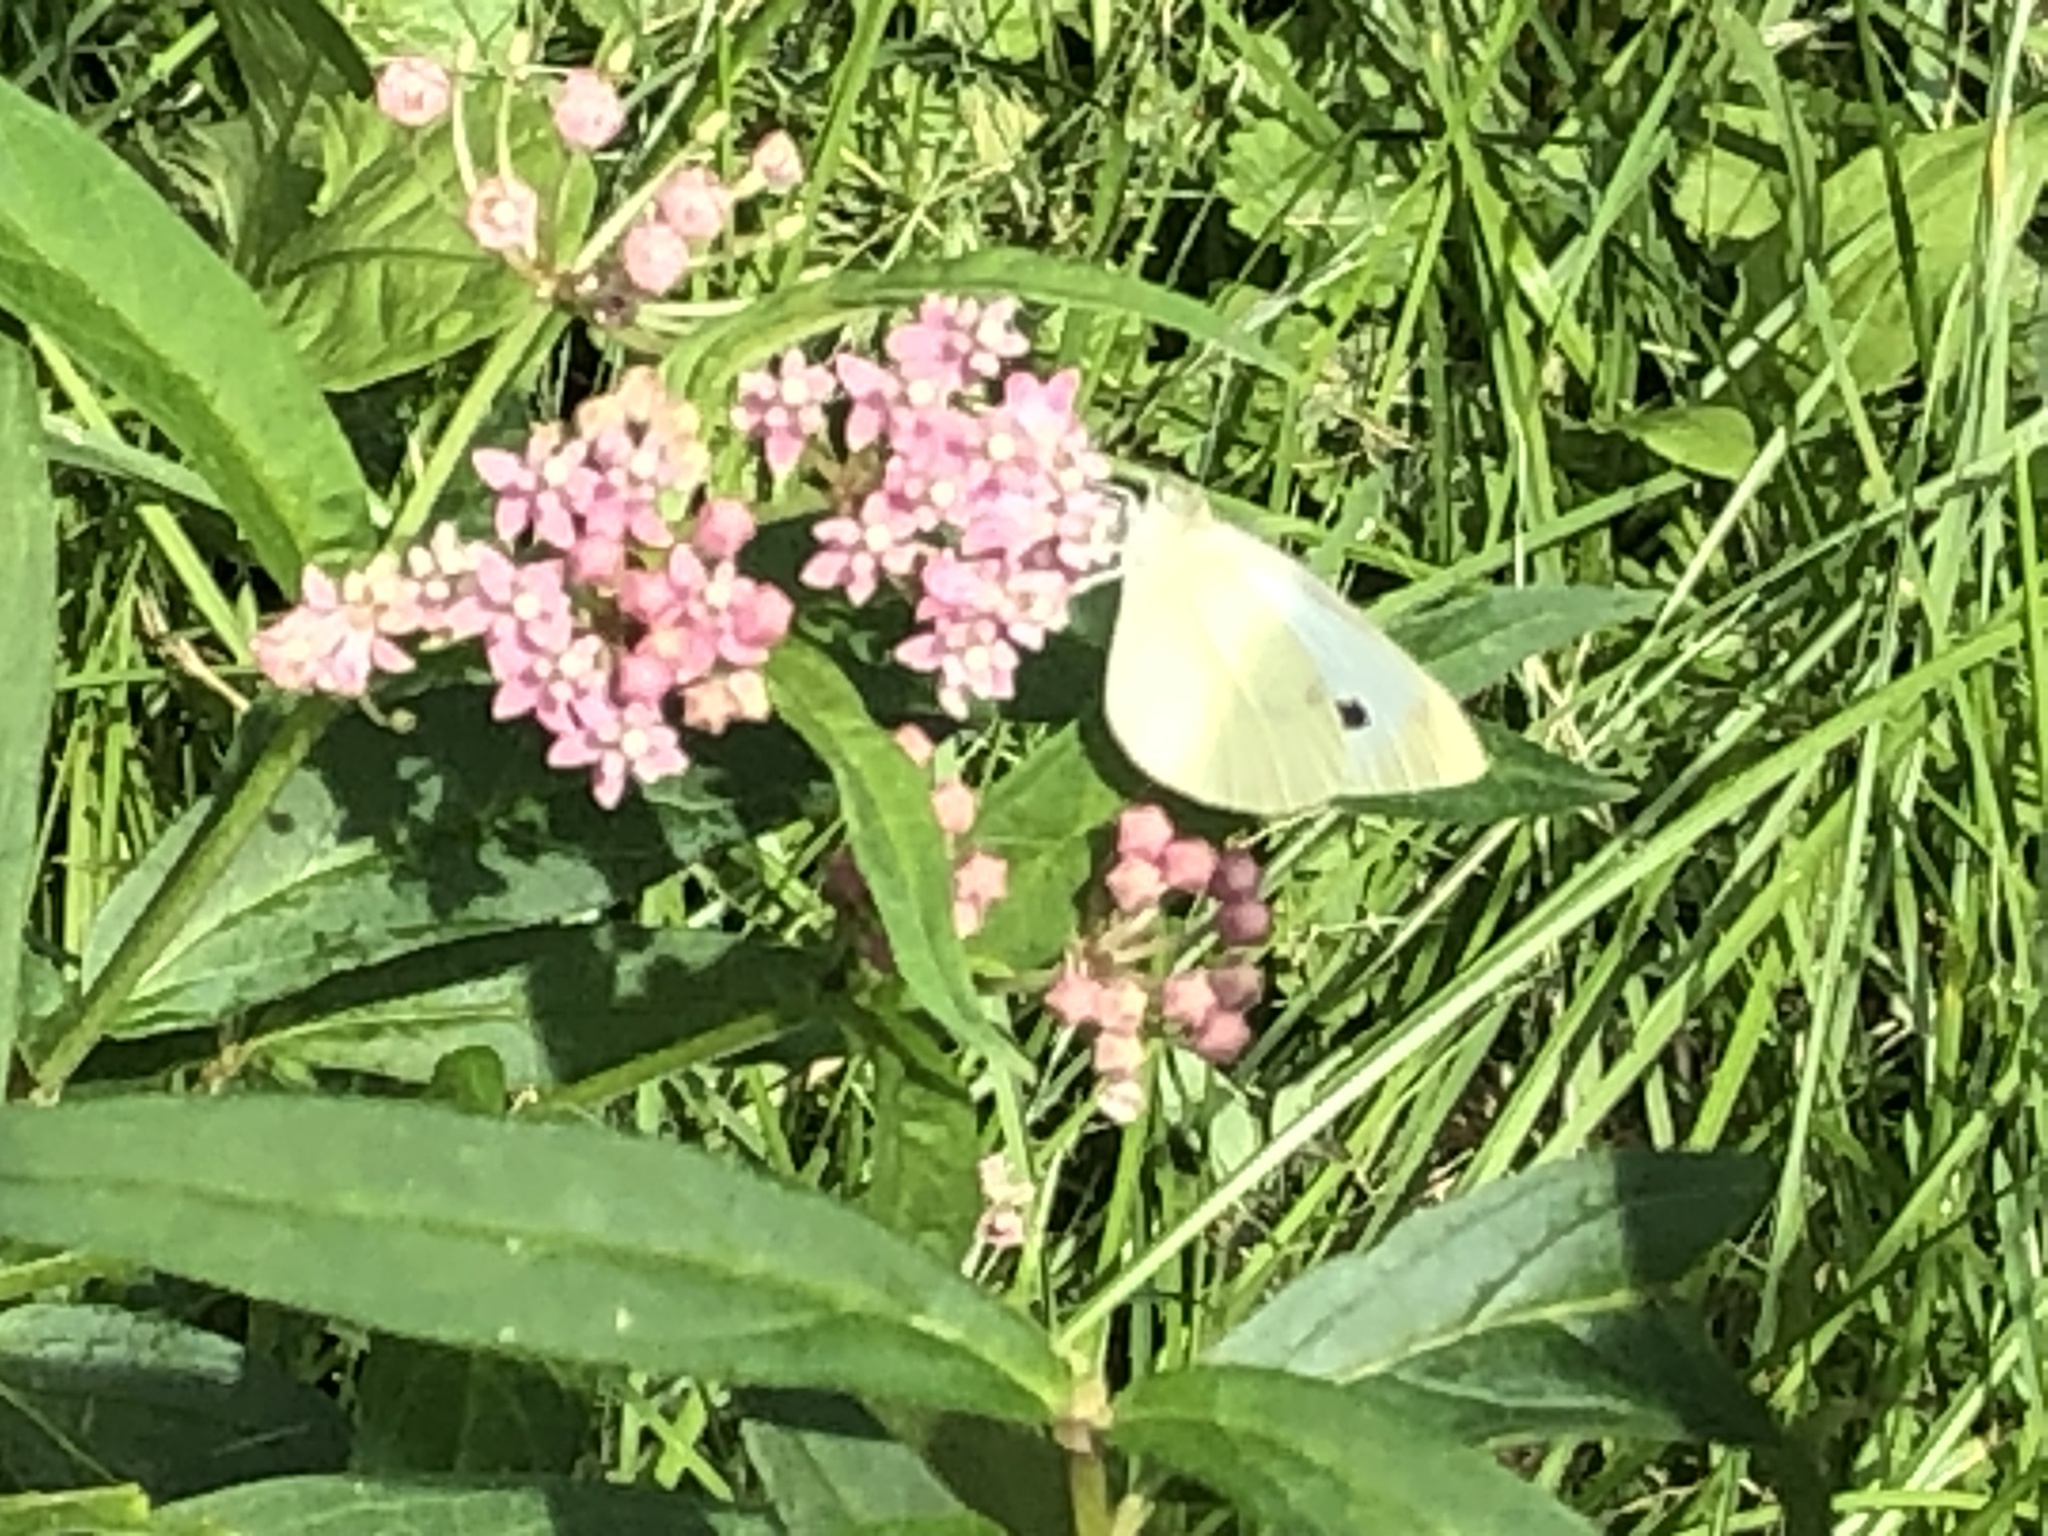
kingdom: Animalia
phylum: Arthropoda
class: Insecta
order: Lepidoptera
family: Pieridae
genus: Pieris
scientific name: Pieris rapae
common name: Small white
